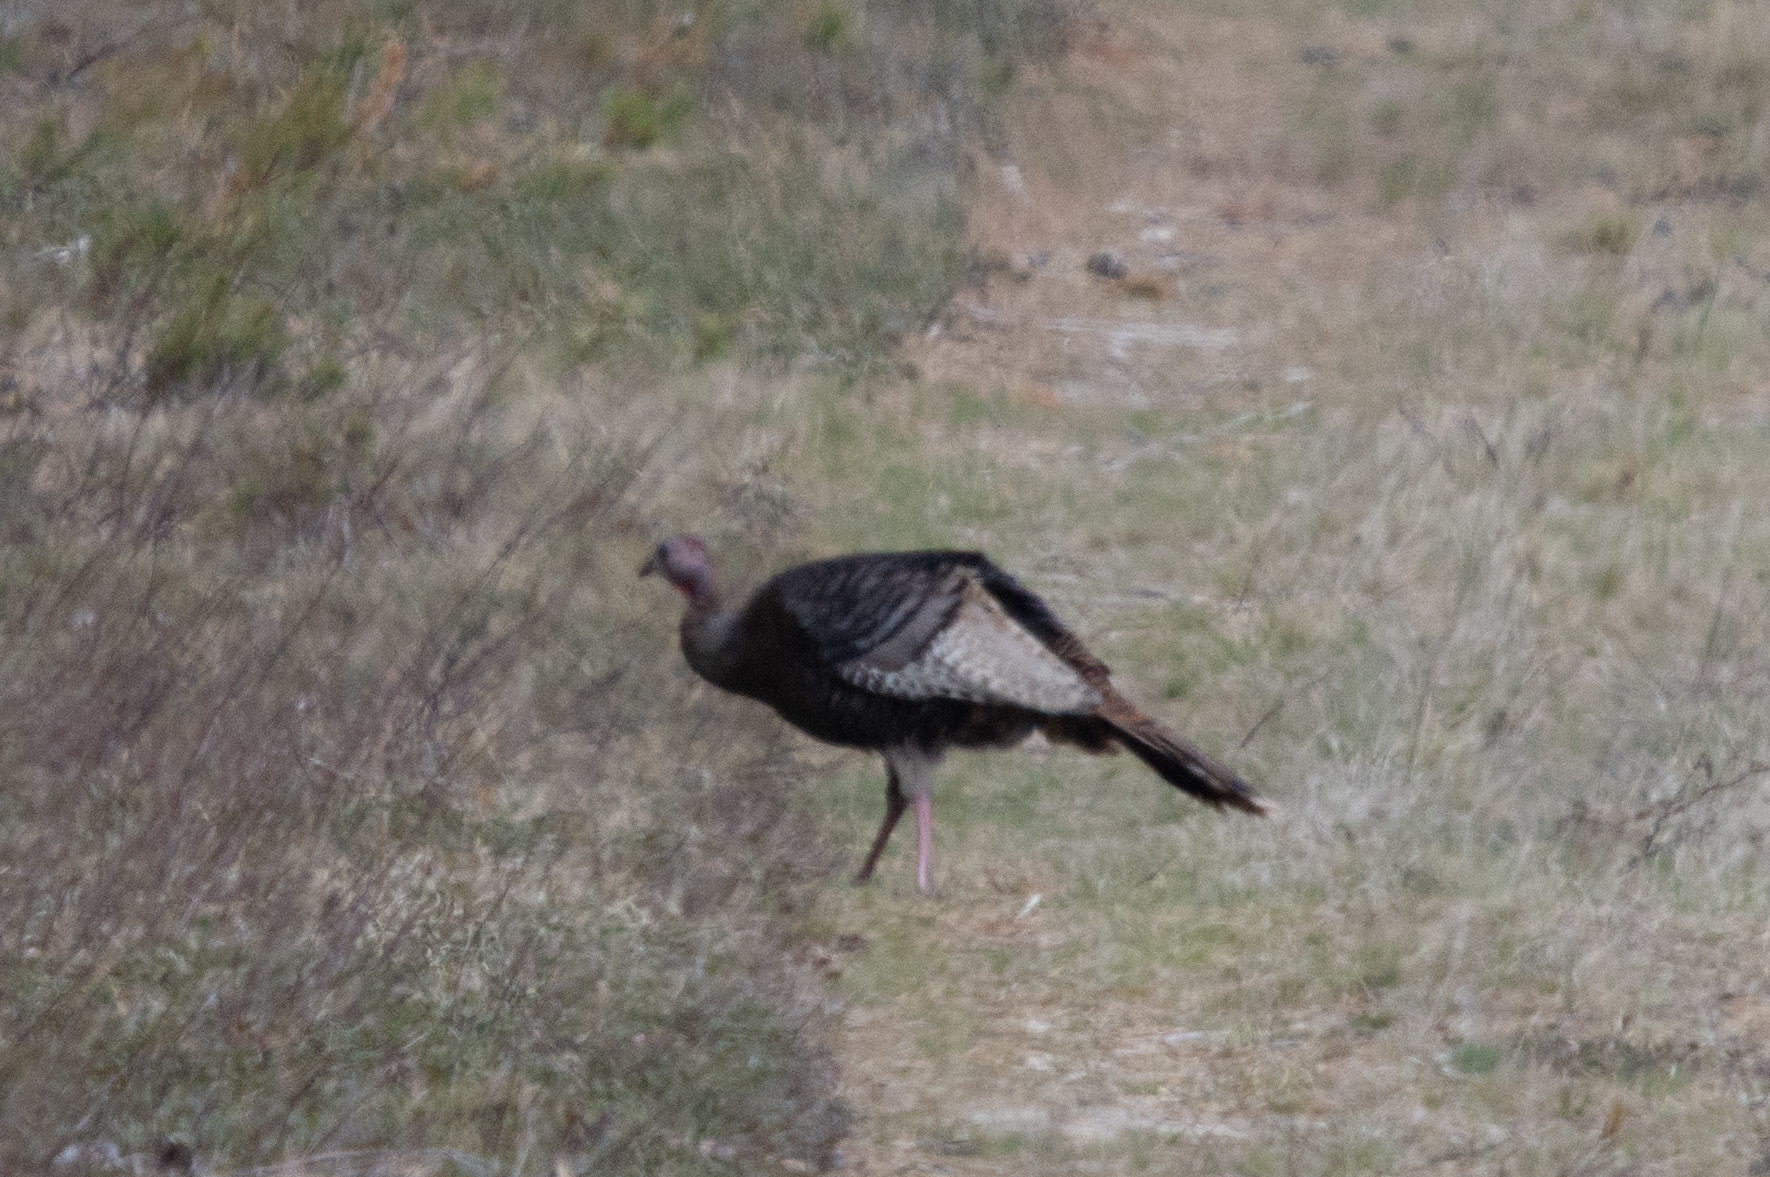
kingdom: Animalia
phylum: Chordata
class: Aves
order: Galliformes
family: Phasianidae
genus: Meleagris
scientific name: Meleagris gallopavo
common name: Wild turkey
